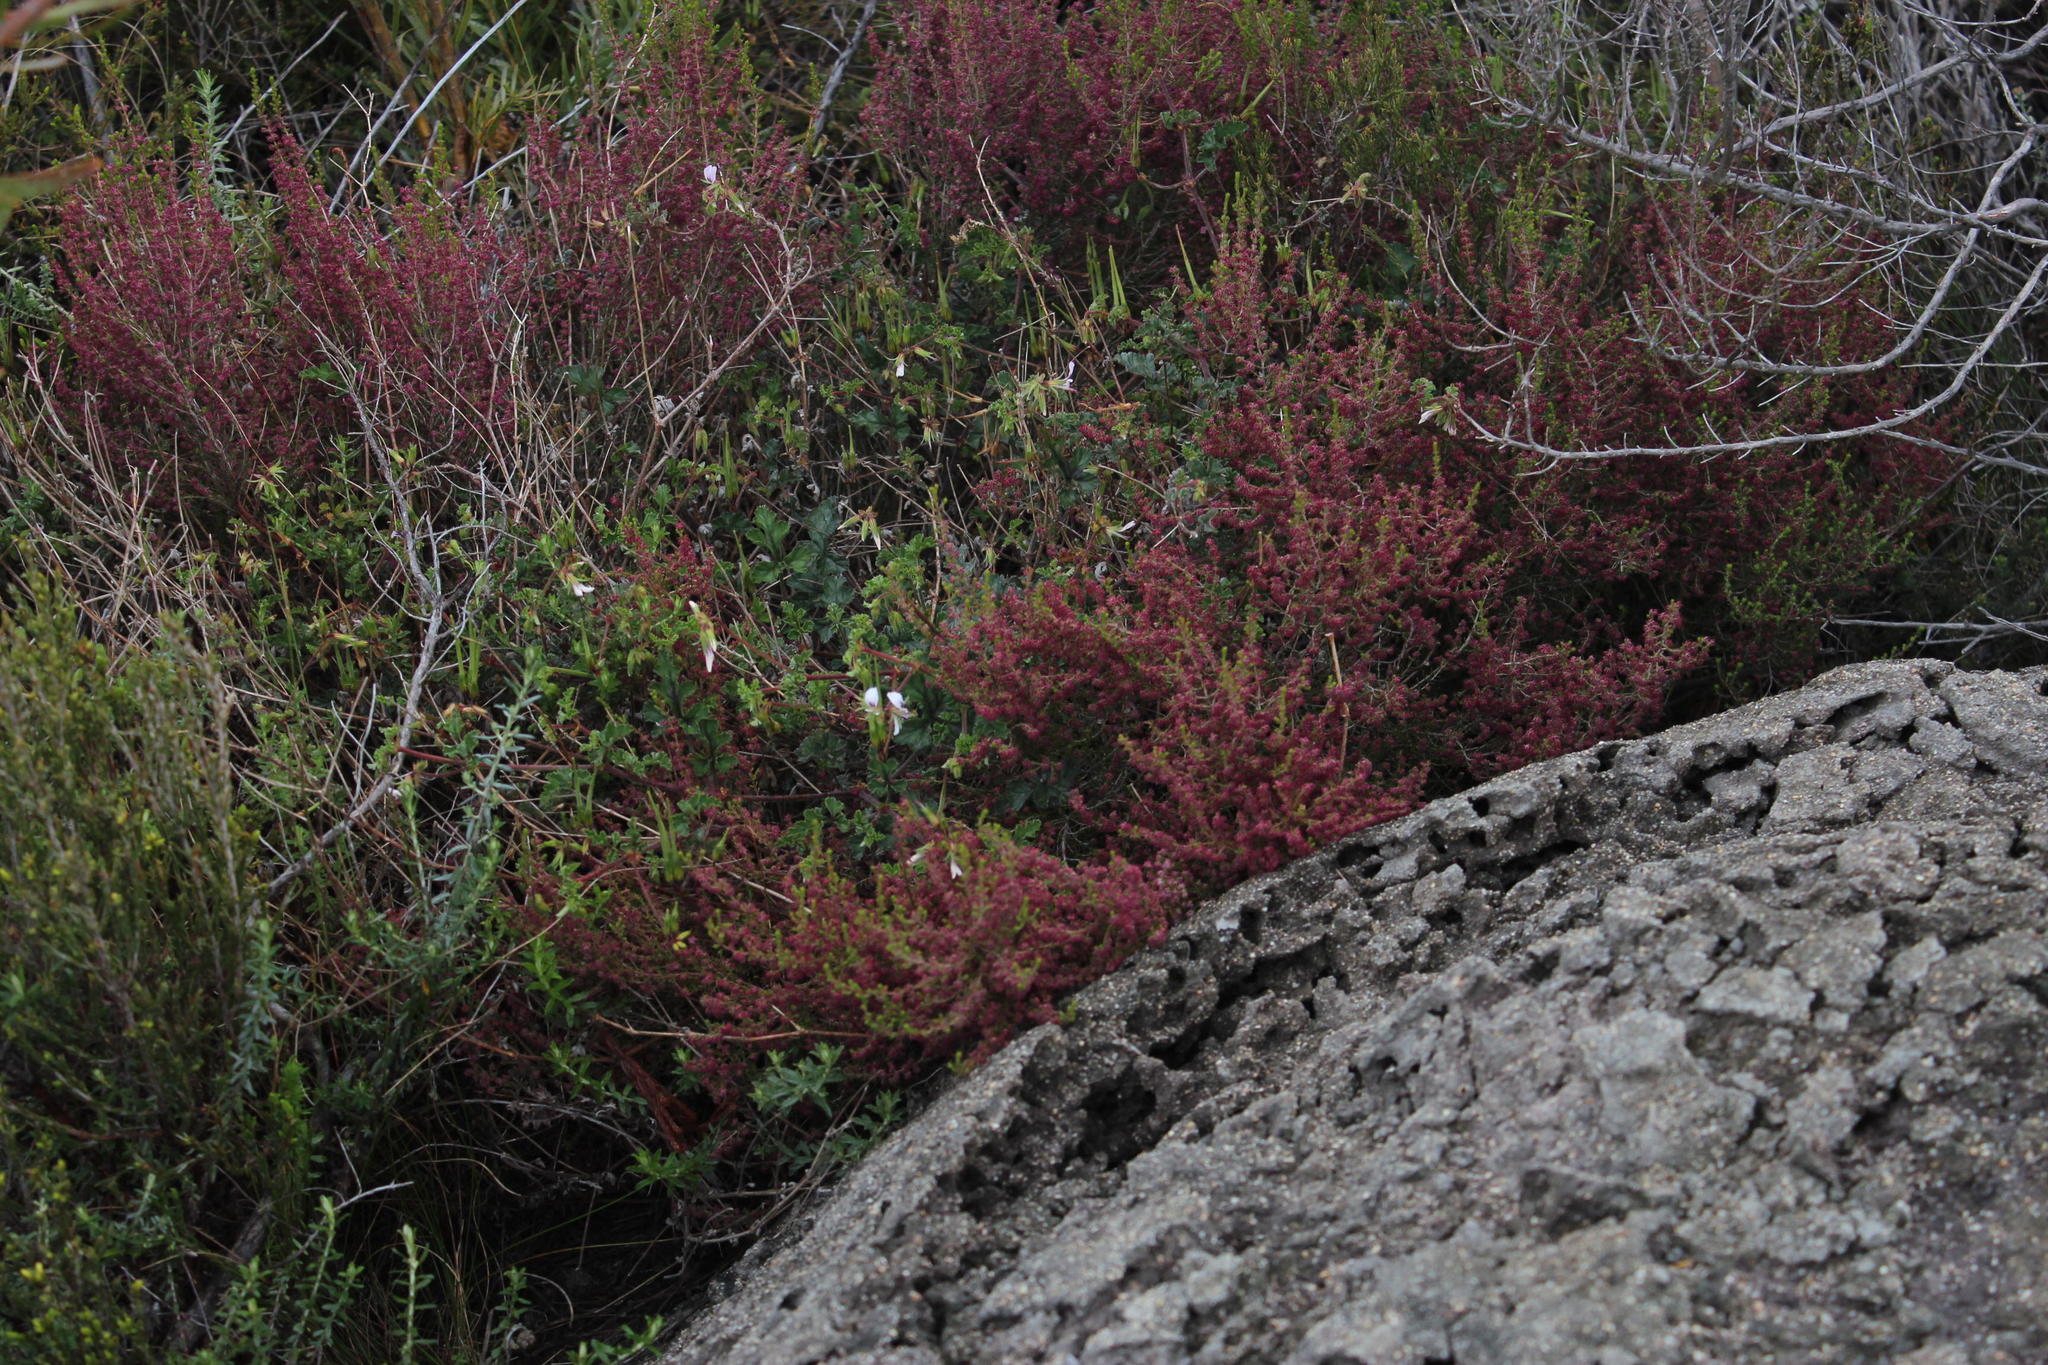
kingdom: Plantae
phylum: Tracheophyta
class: Magnoliopsida
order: Geraniales
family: Geraniaceae
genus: Pelargonium
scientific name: Pelargonium candicans
